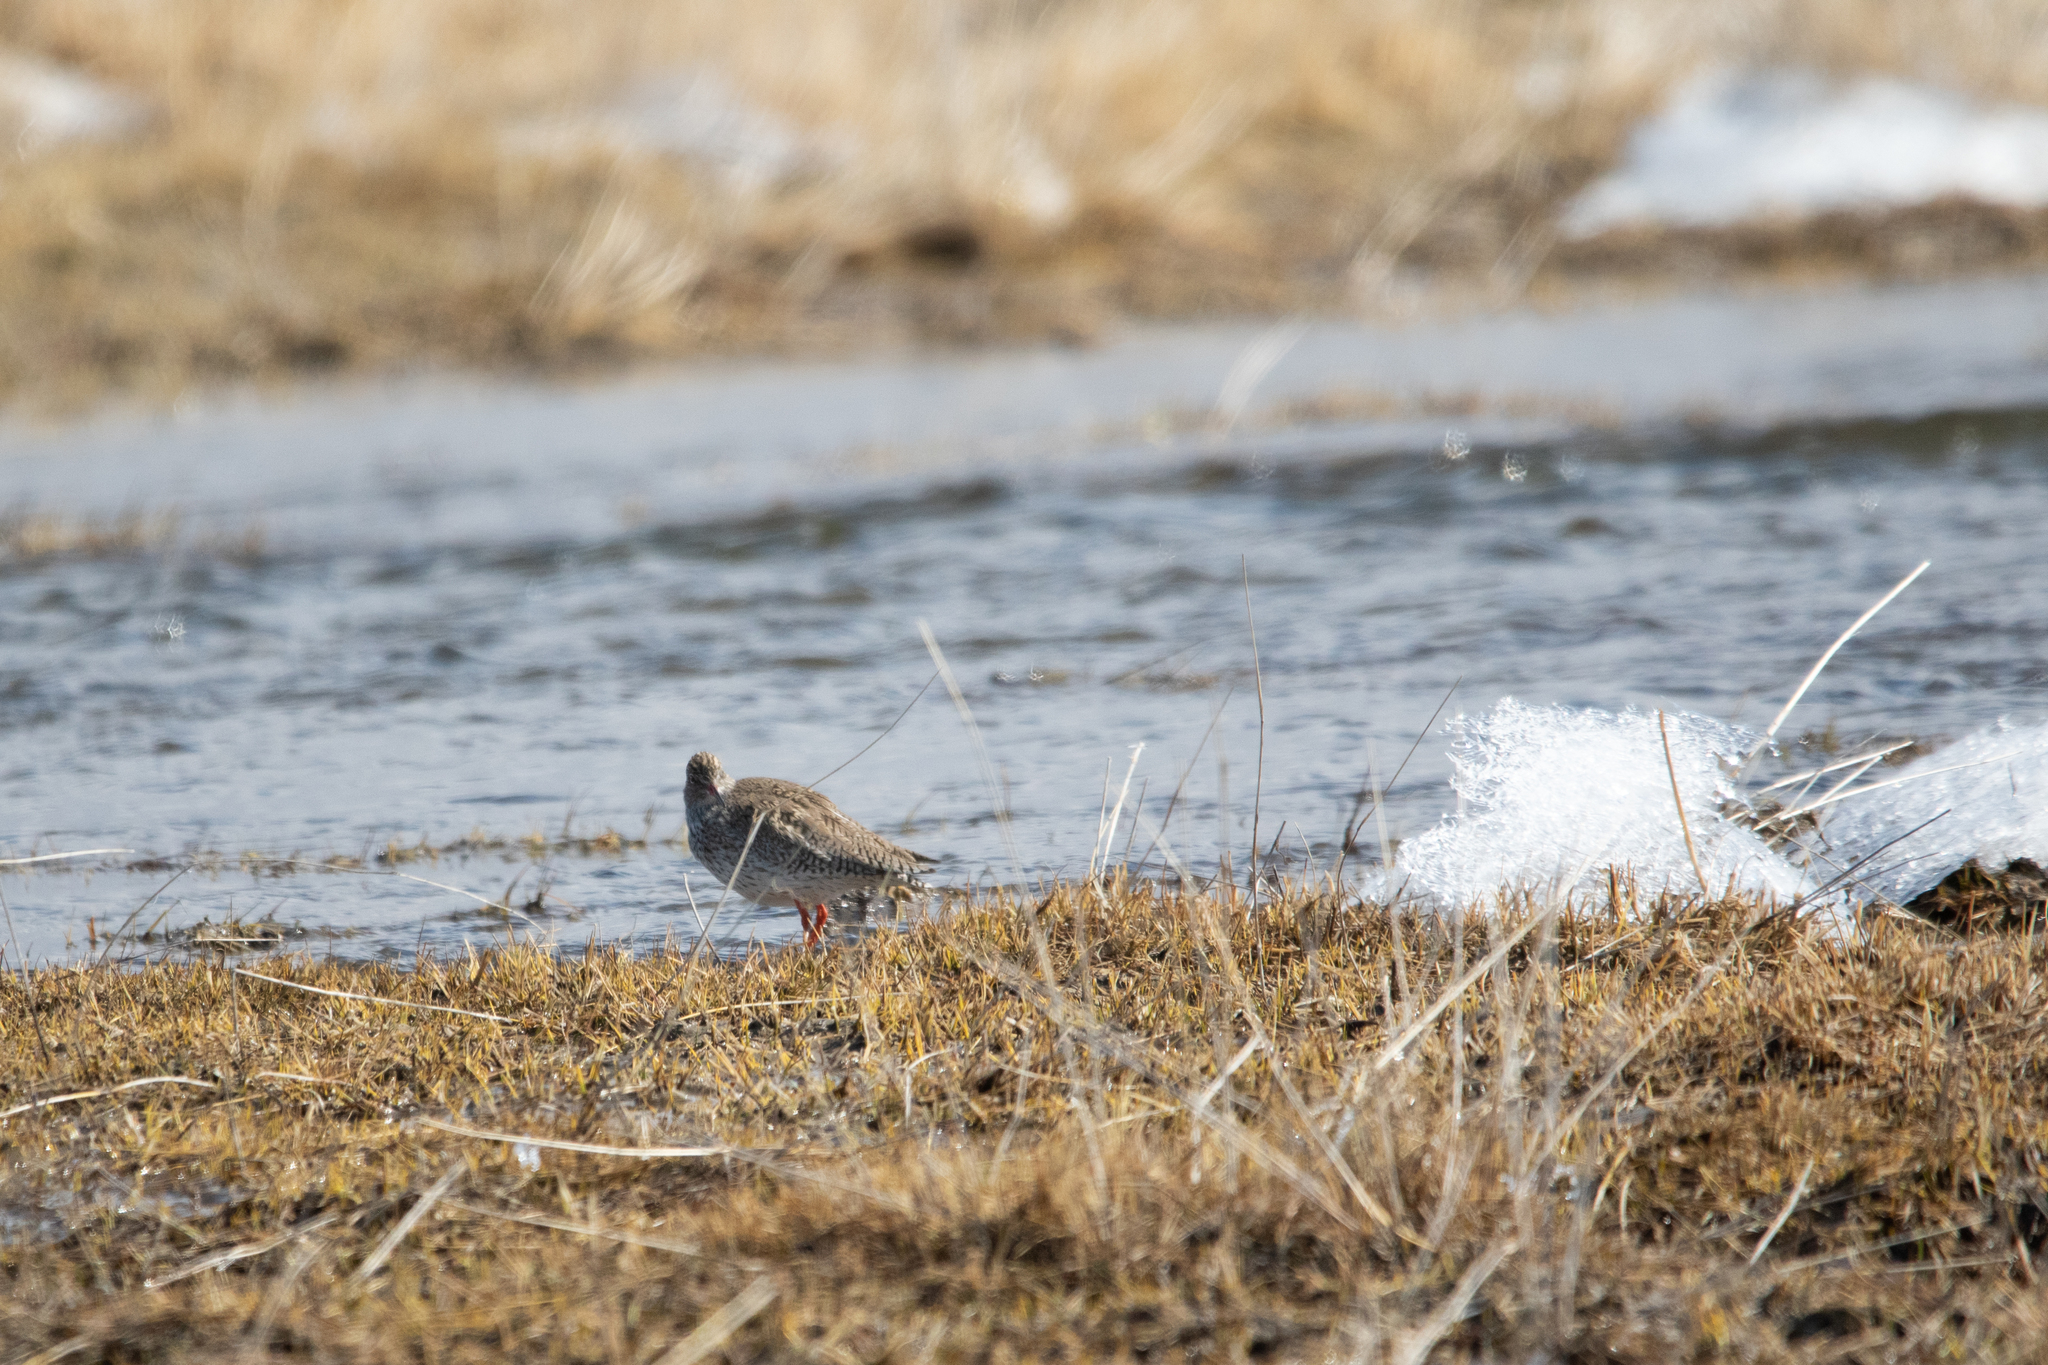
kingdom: Animalia
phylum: Chordata
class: Aves
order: Charadriiformes
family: Scolopacidae
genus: Tringa
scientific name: Tringa totanus
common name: Common redshank
